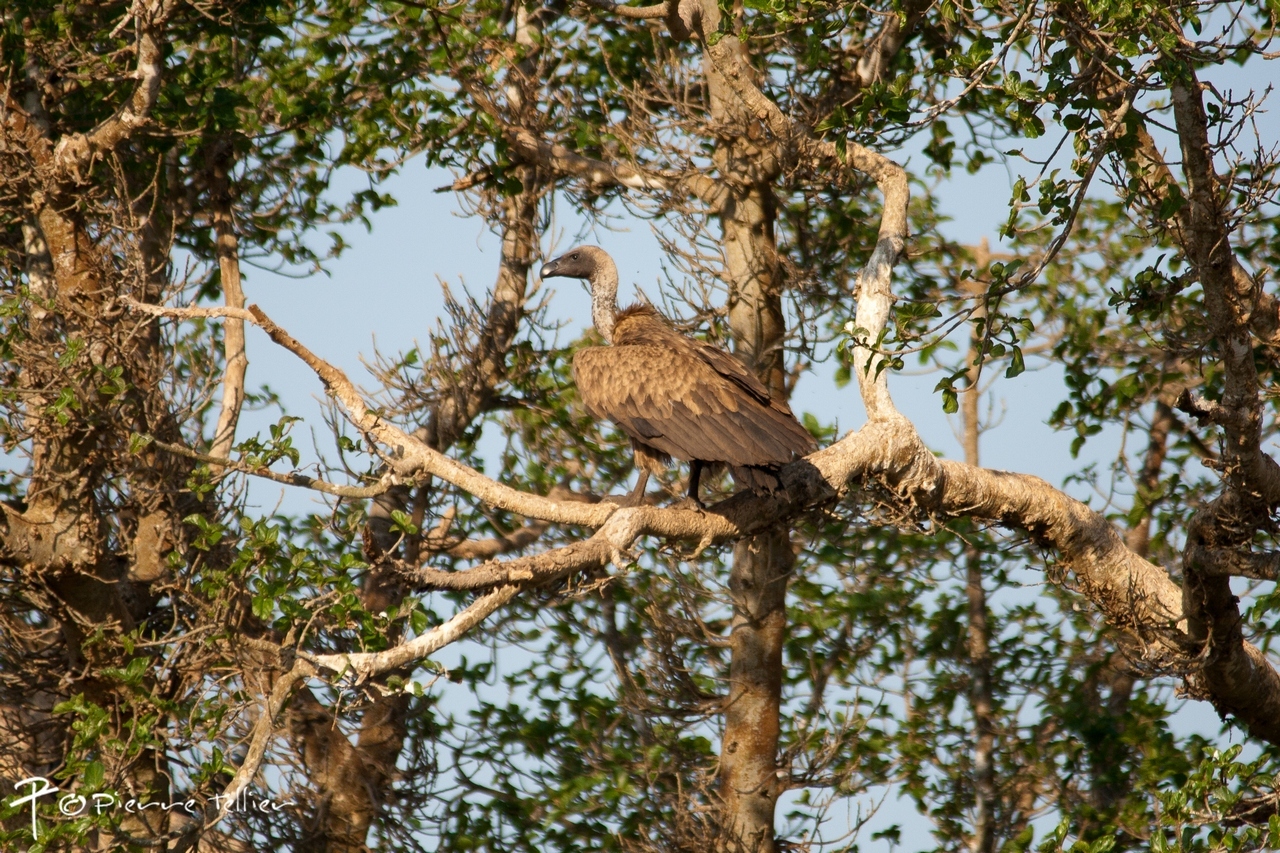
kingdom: Animalia
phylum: Chordata
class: Aves
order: Accipitriformes
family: Accipitridae
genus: Gyps
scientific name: Gyps africanus
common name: White-backed vulture
